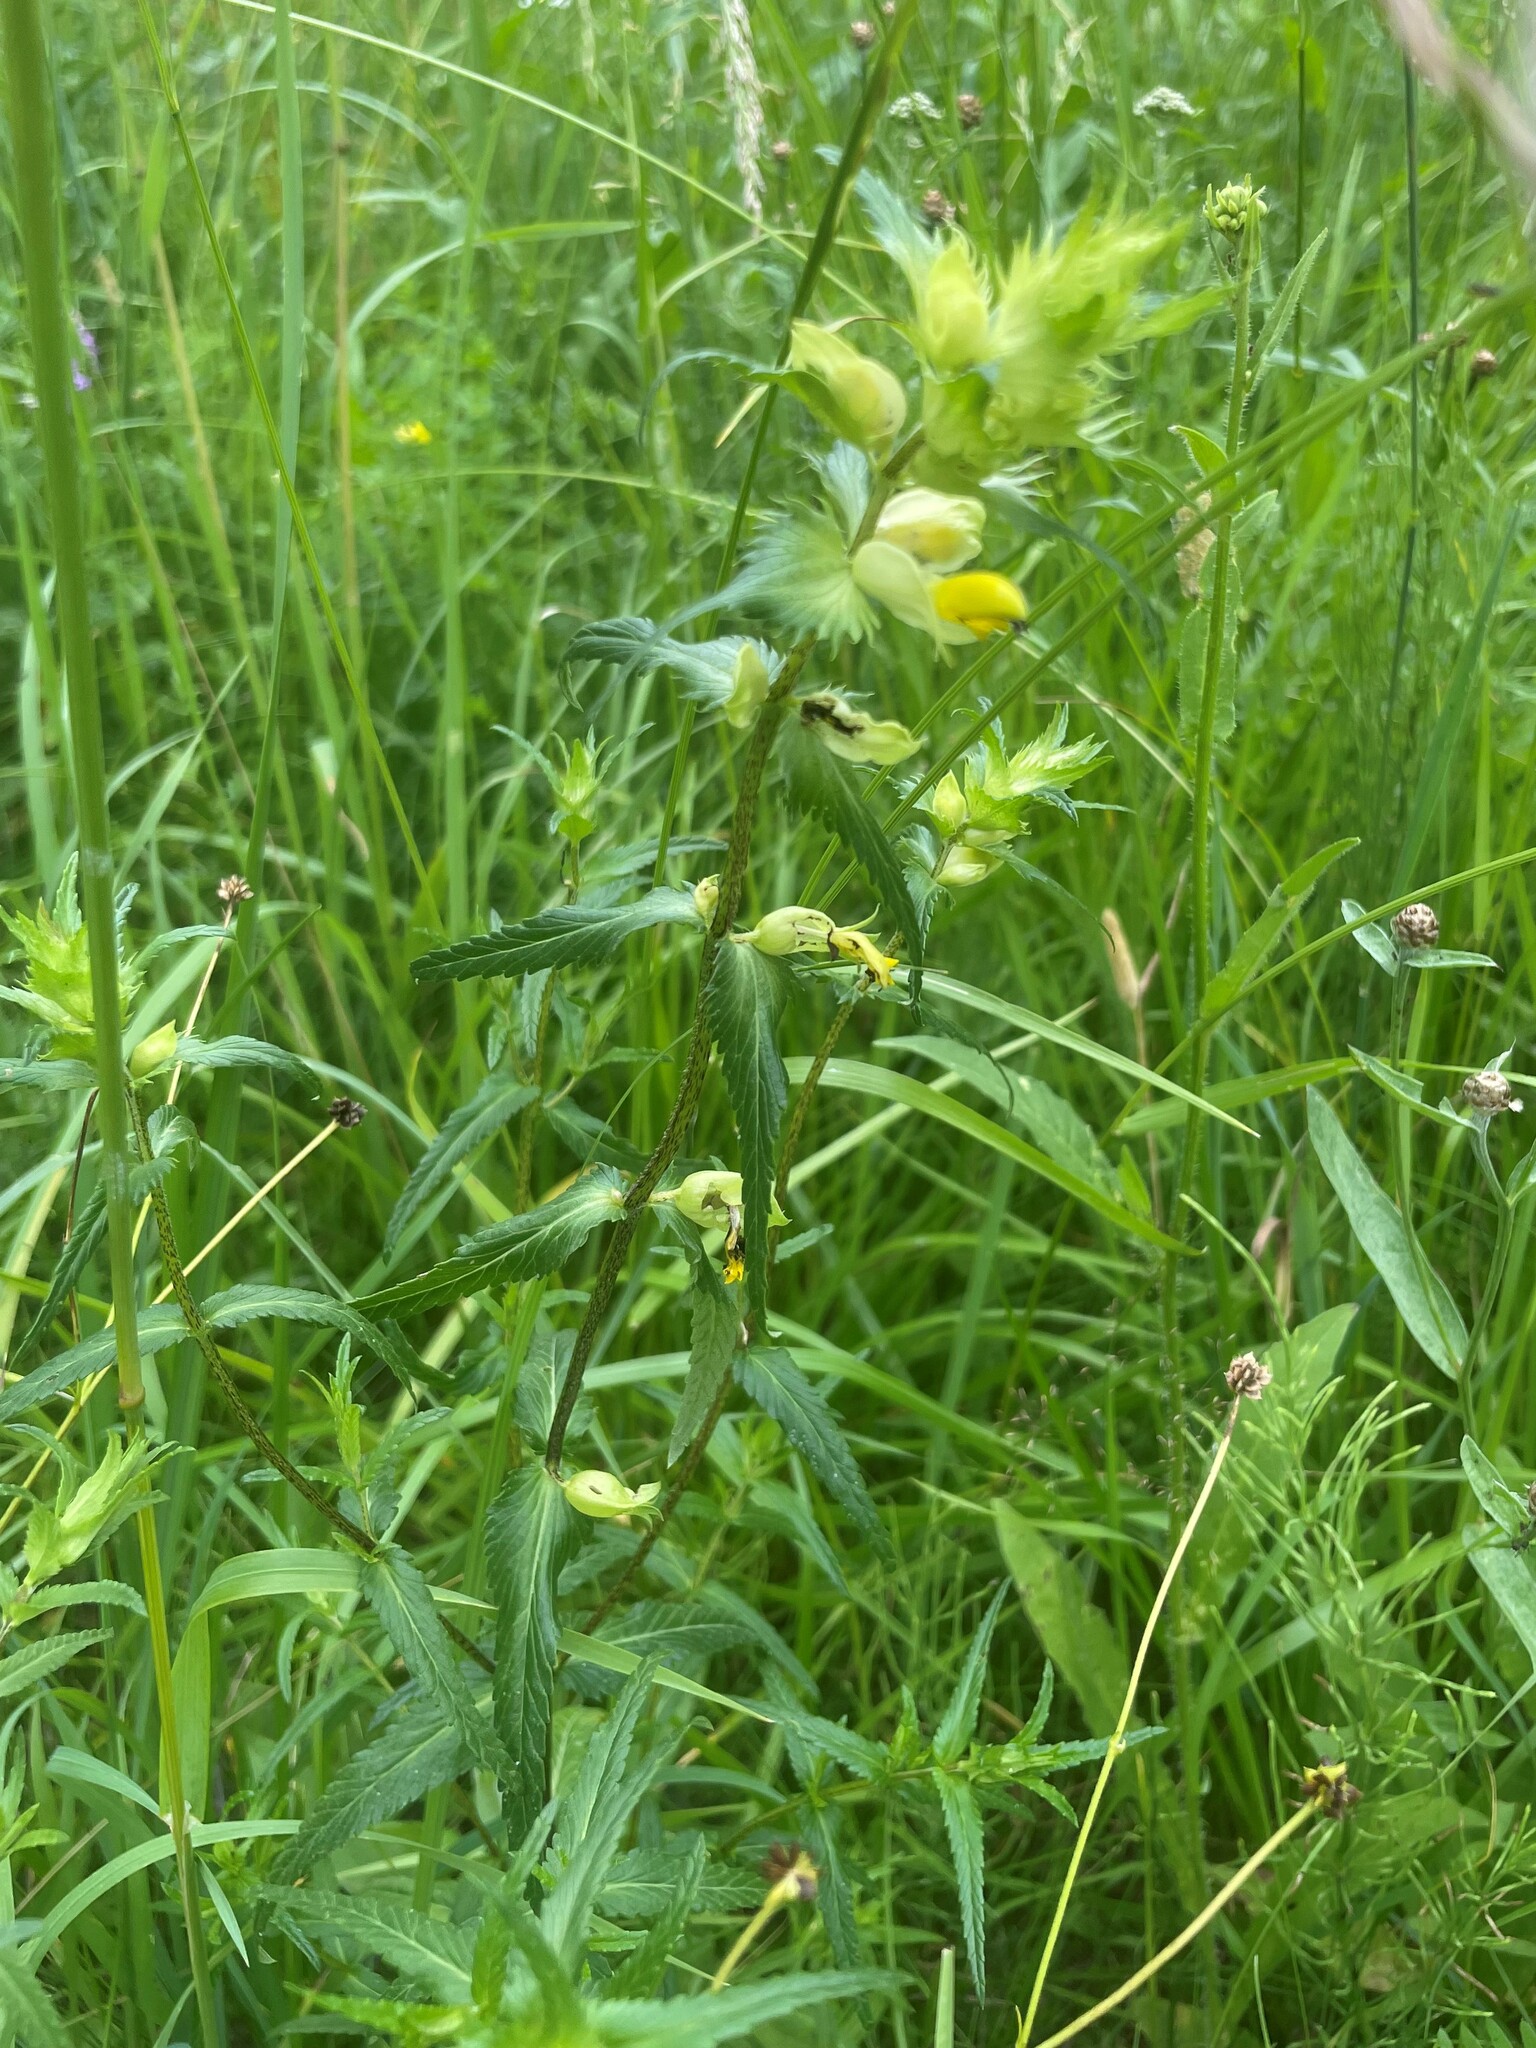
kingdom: Plantae
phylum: Tracheophyta
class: Magnoliopsida
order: Lamiales
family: Orobanchaceae
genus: Rhinanthus
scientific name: Rhinanthus serotinus
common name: Late-flowering yellow rattle
